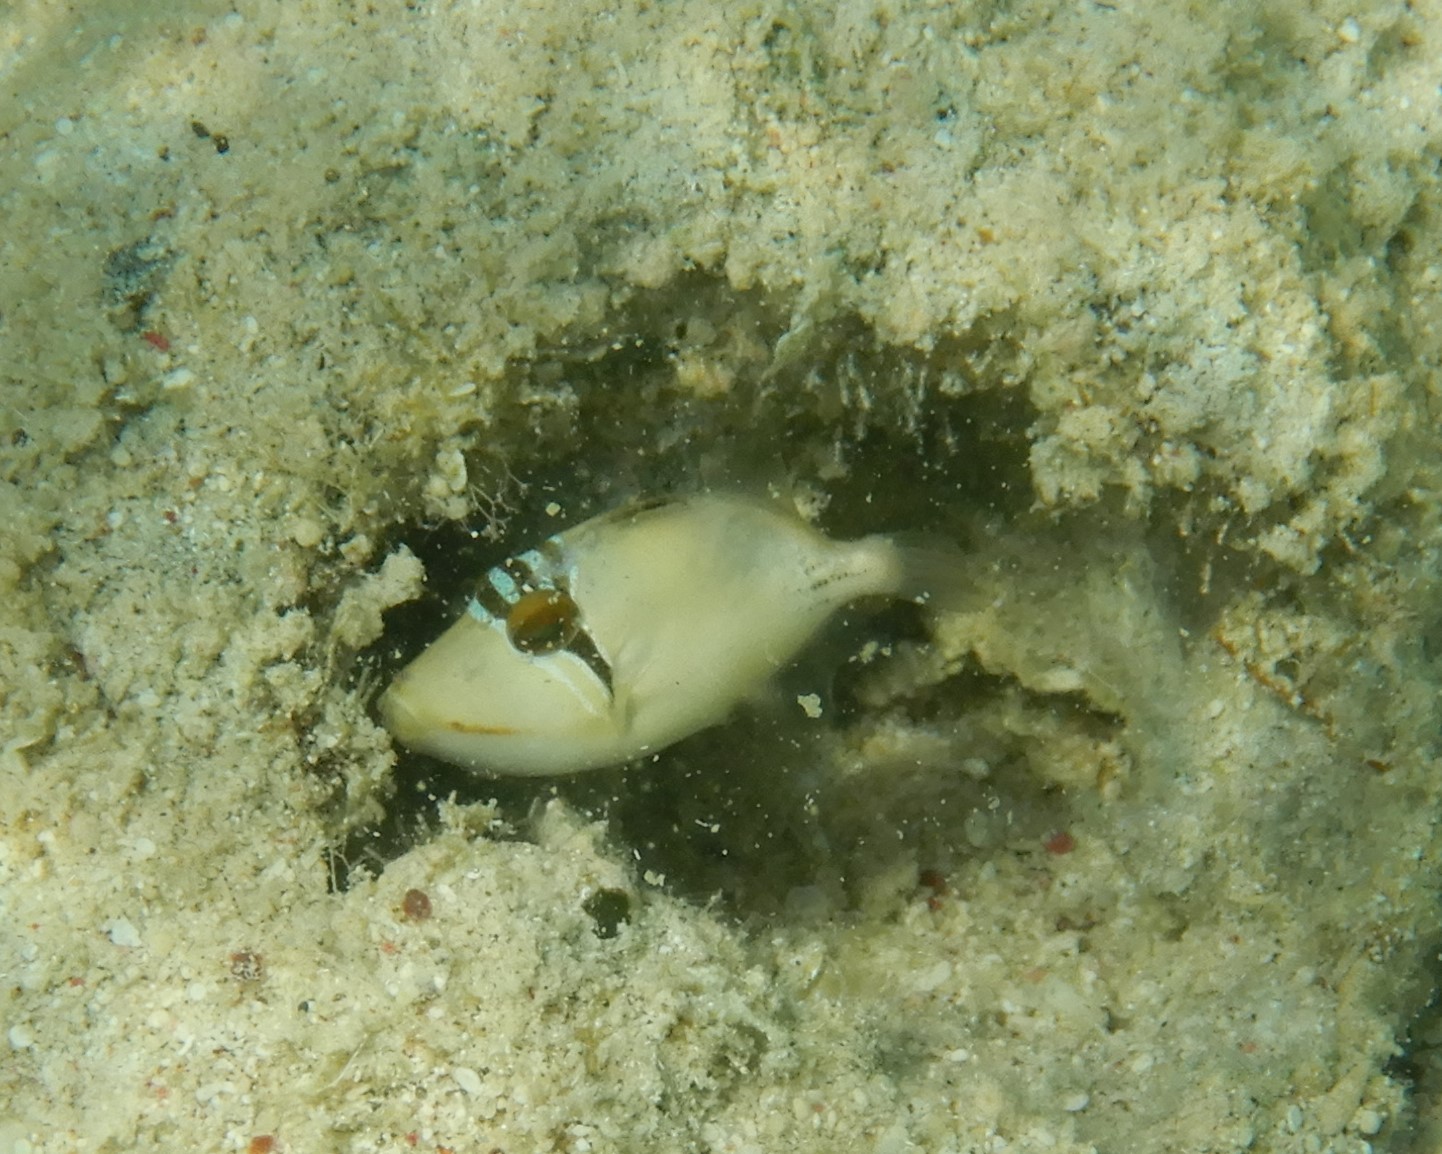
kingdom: Animalia
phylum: Chordata
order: Tetraodontiformes
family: Balistidae
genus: Rhinecanthus
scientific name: Rhinecanthus assasi
